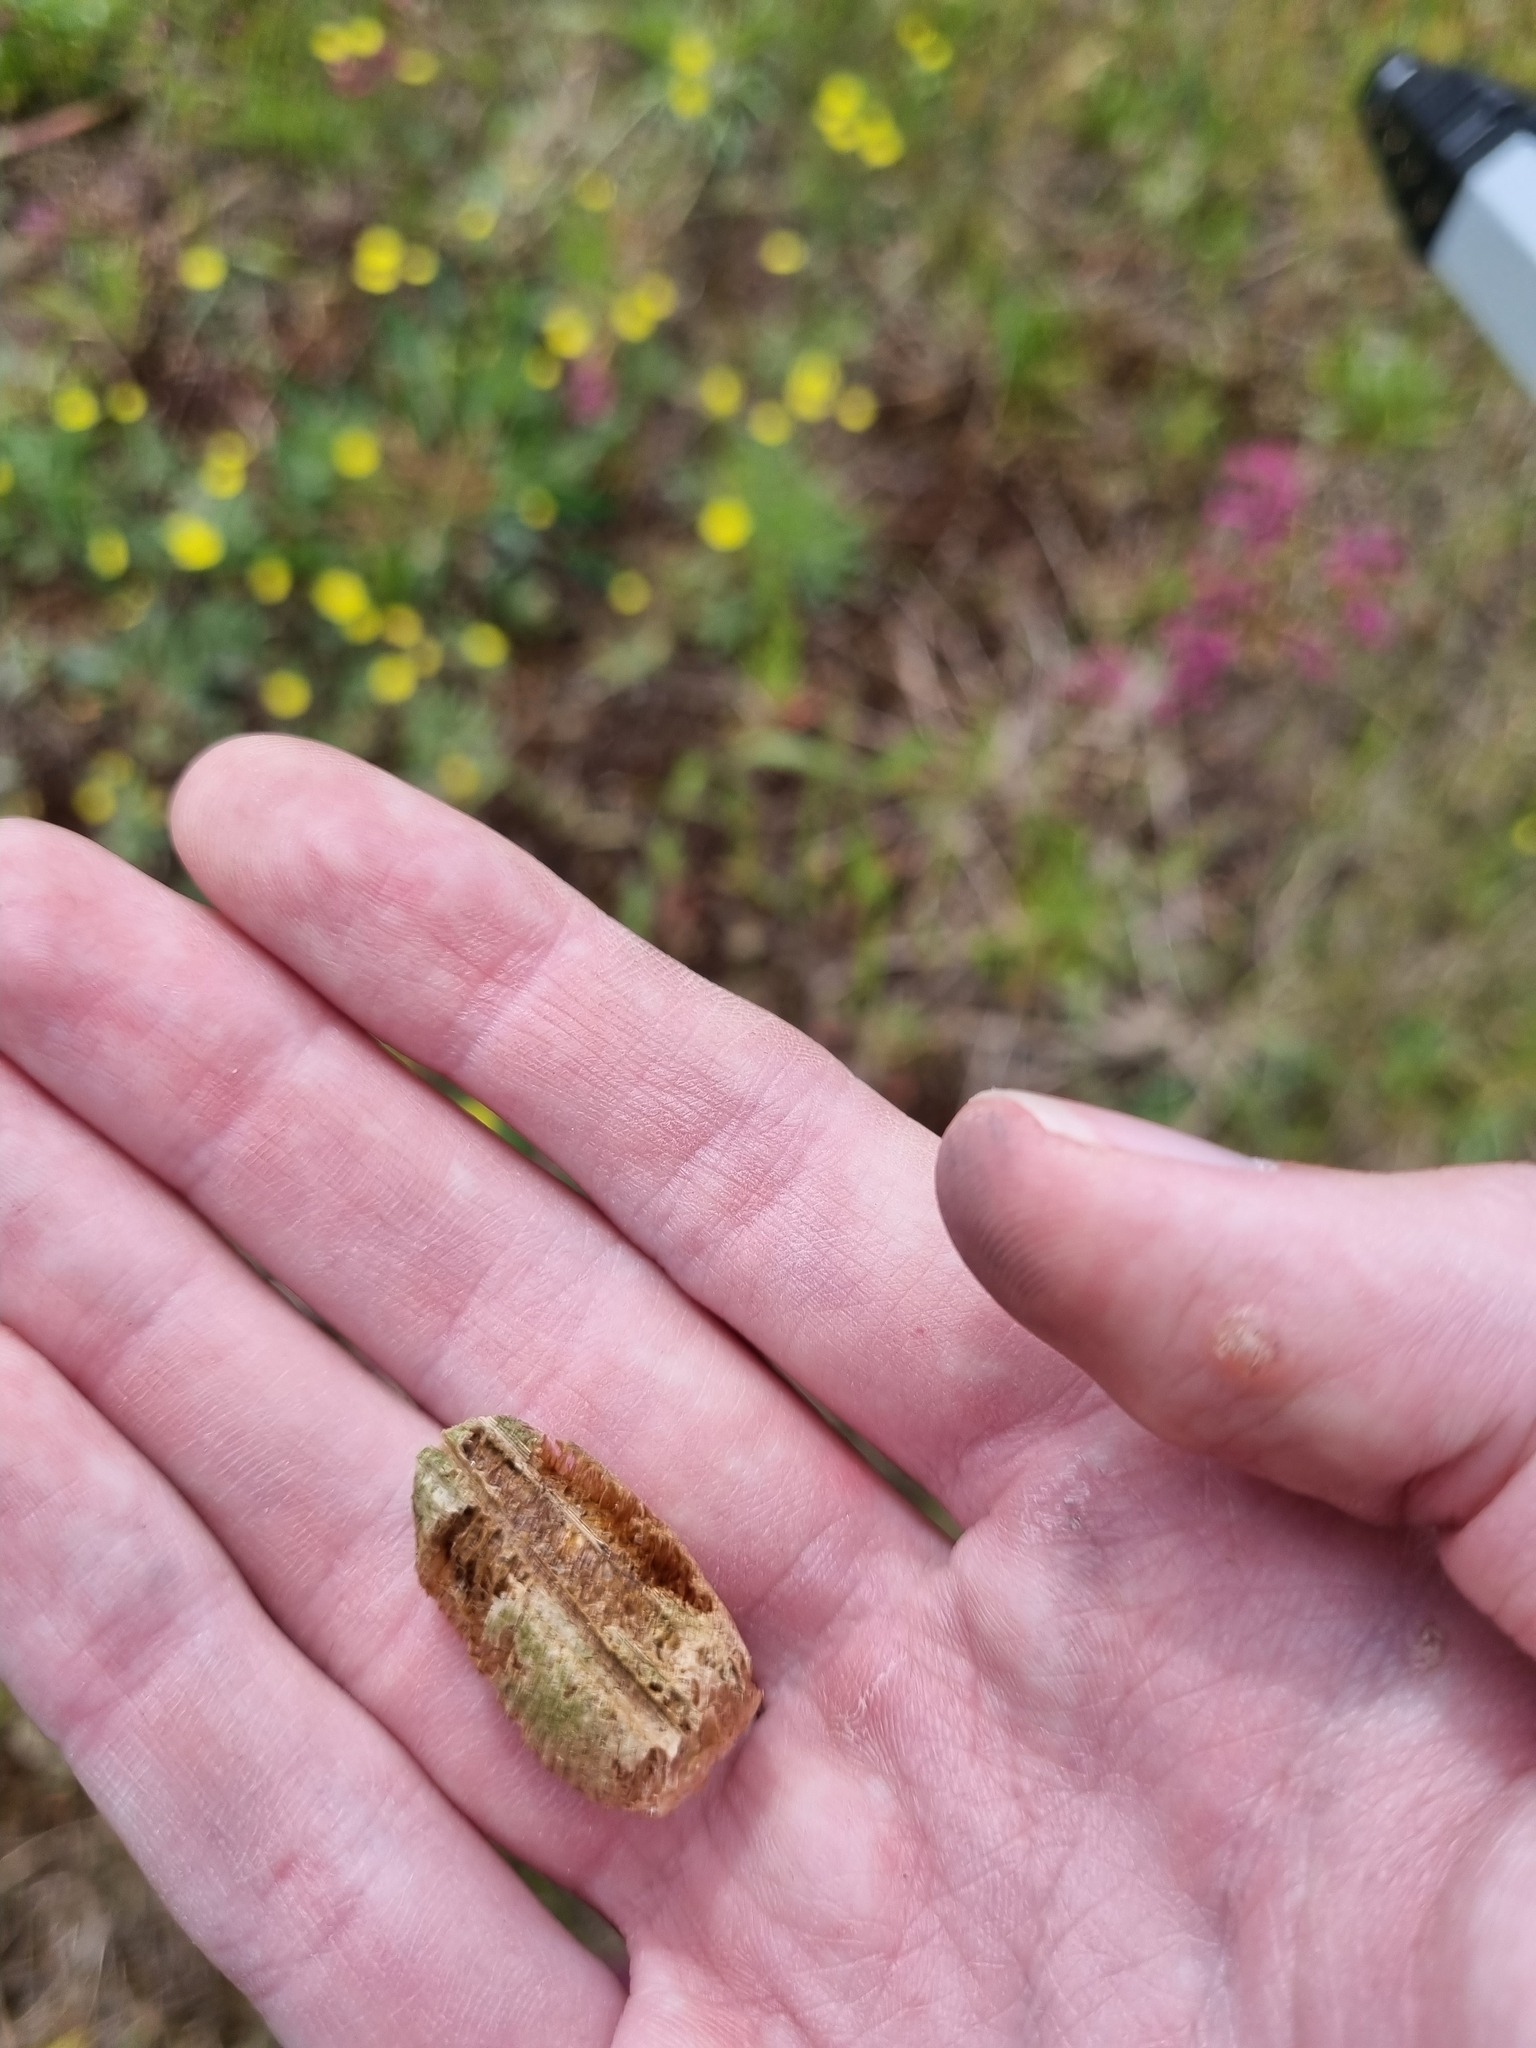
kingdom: Animalia
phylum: Arthropoda
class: Insecta
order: Mantodea
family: Mantidae
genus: Mantis
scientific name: Mantis religiosa
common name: Praying mantis
